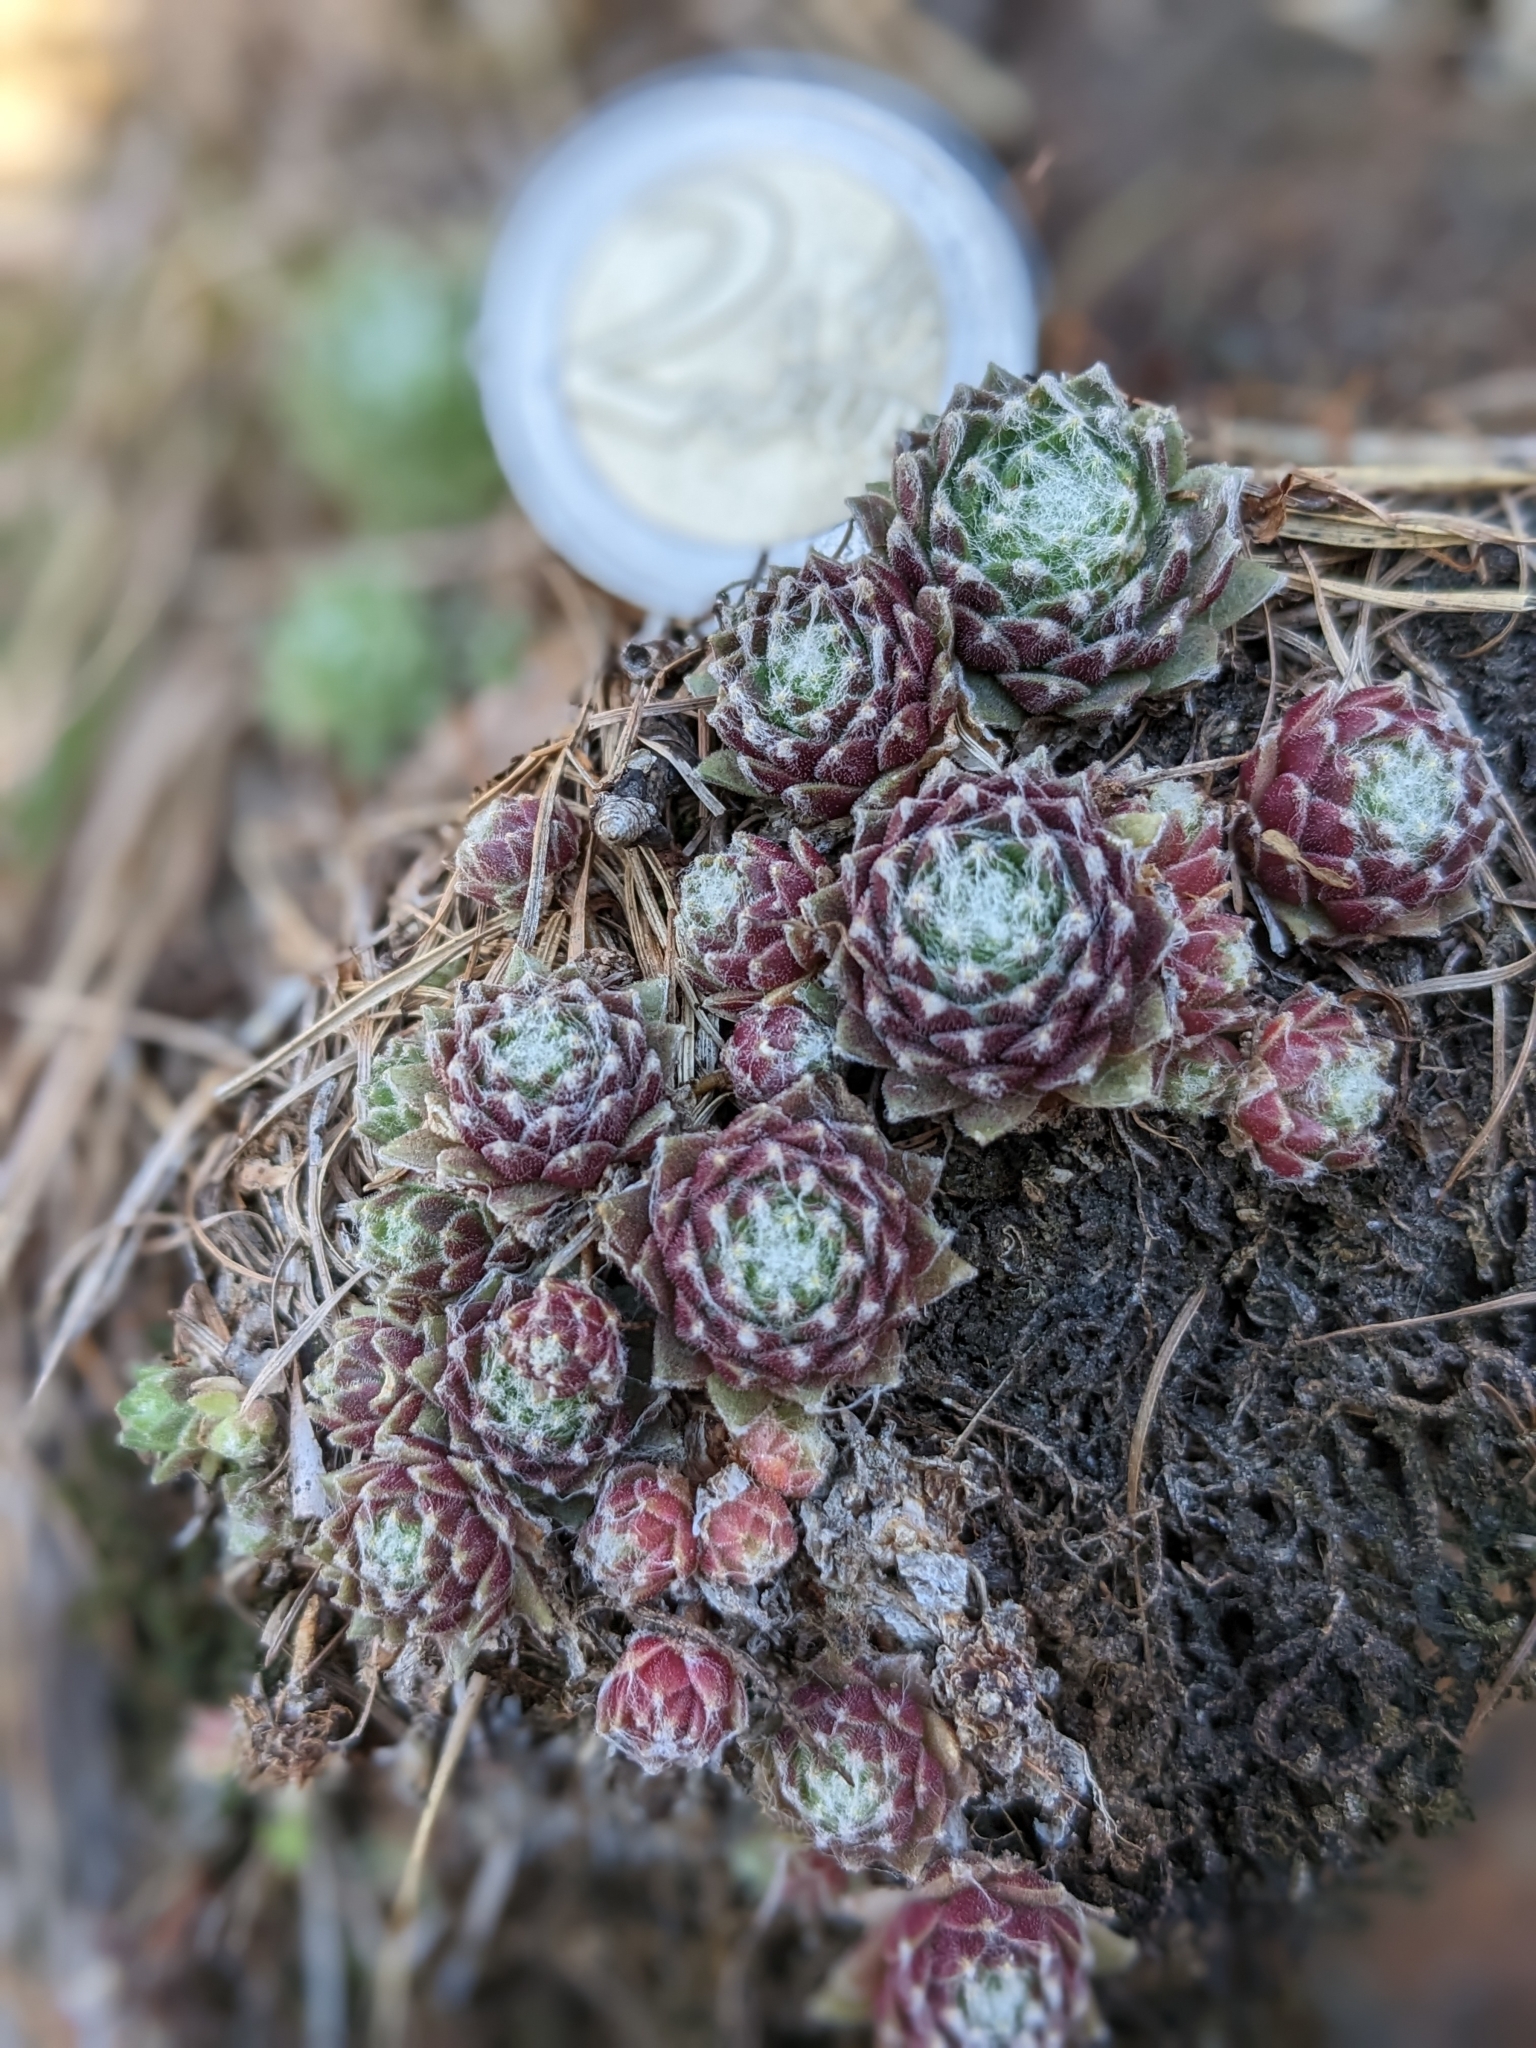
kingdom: Plantae
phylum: Tracheophyta
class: Magnoliopsida
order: Saxifragales
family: Crassulaceae
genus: Sempervivum
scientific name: Sempervivum arachnoideum
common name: Cobweb house-leek
